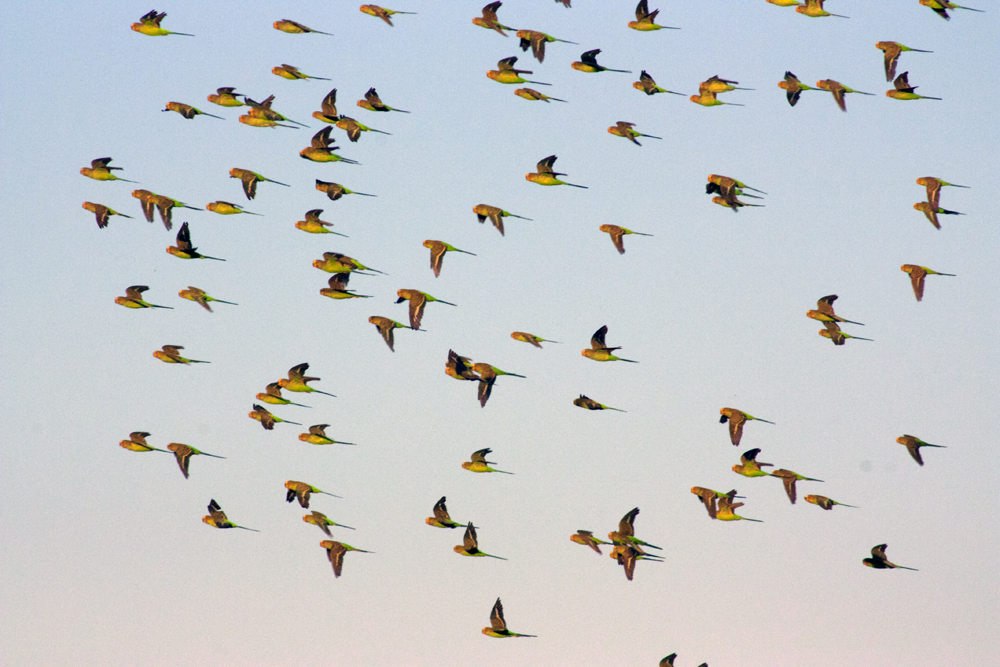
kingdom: Animalia
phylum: Chordata
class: Aves
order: Psittaciformes
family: Psittacidae
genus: Melopsittacus
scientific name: Melopsittacus undulatus
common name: Budgerigar
